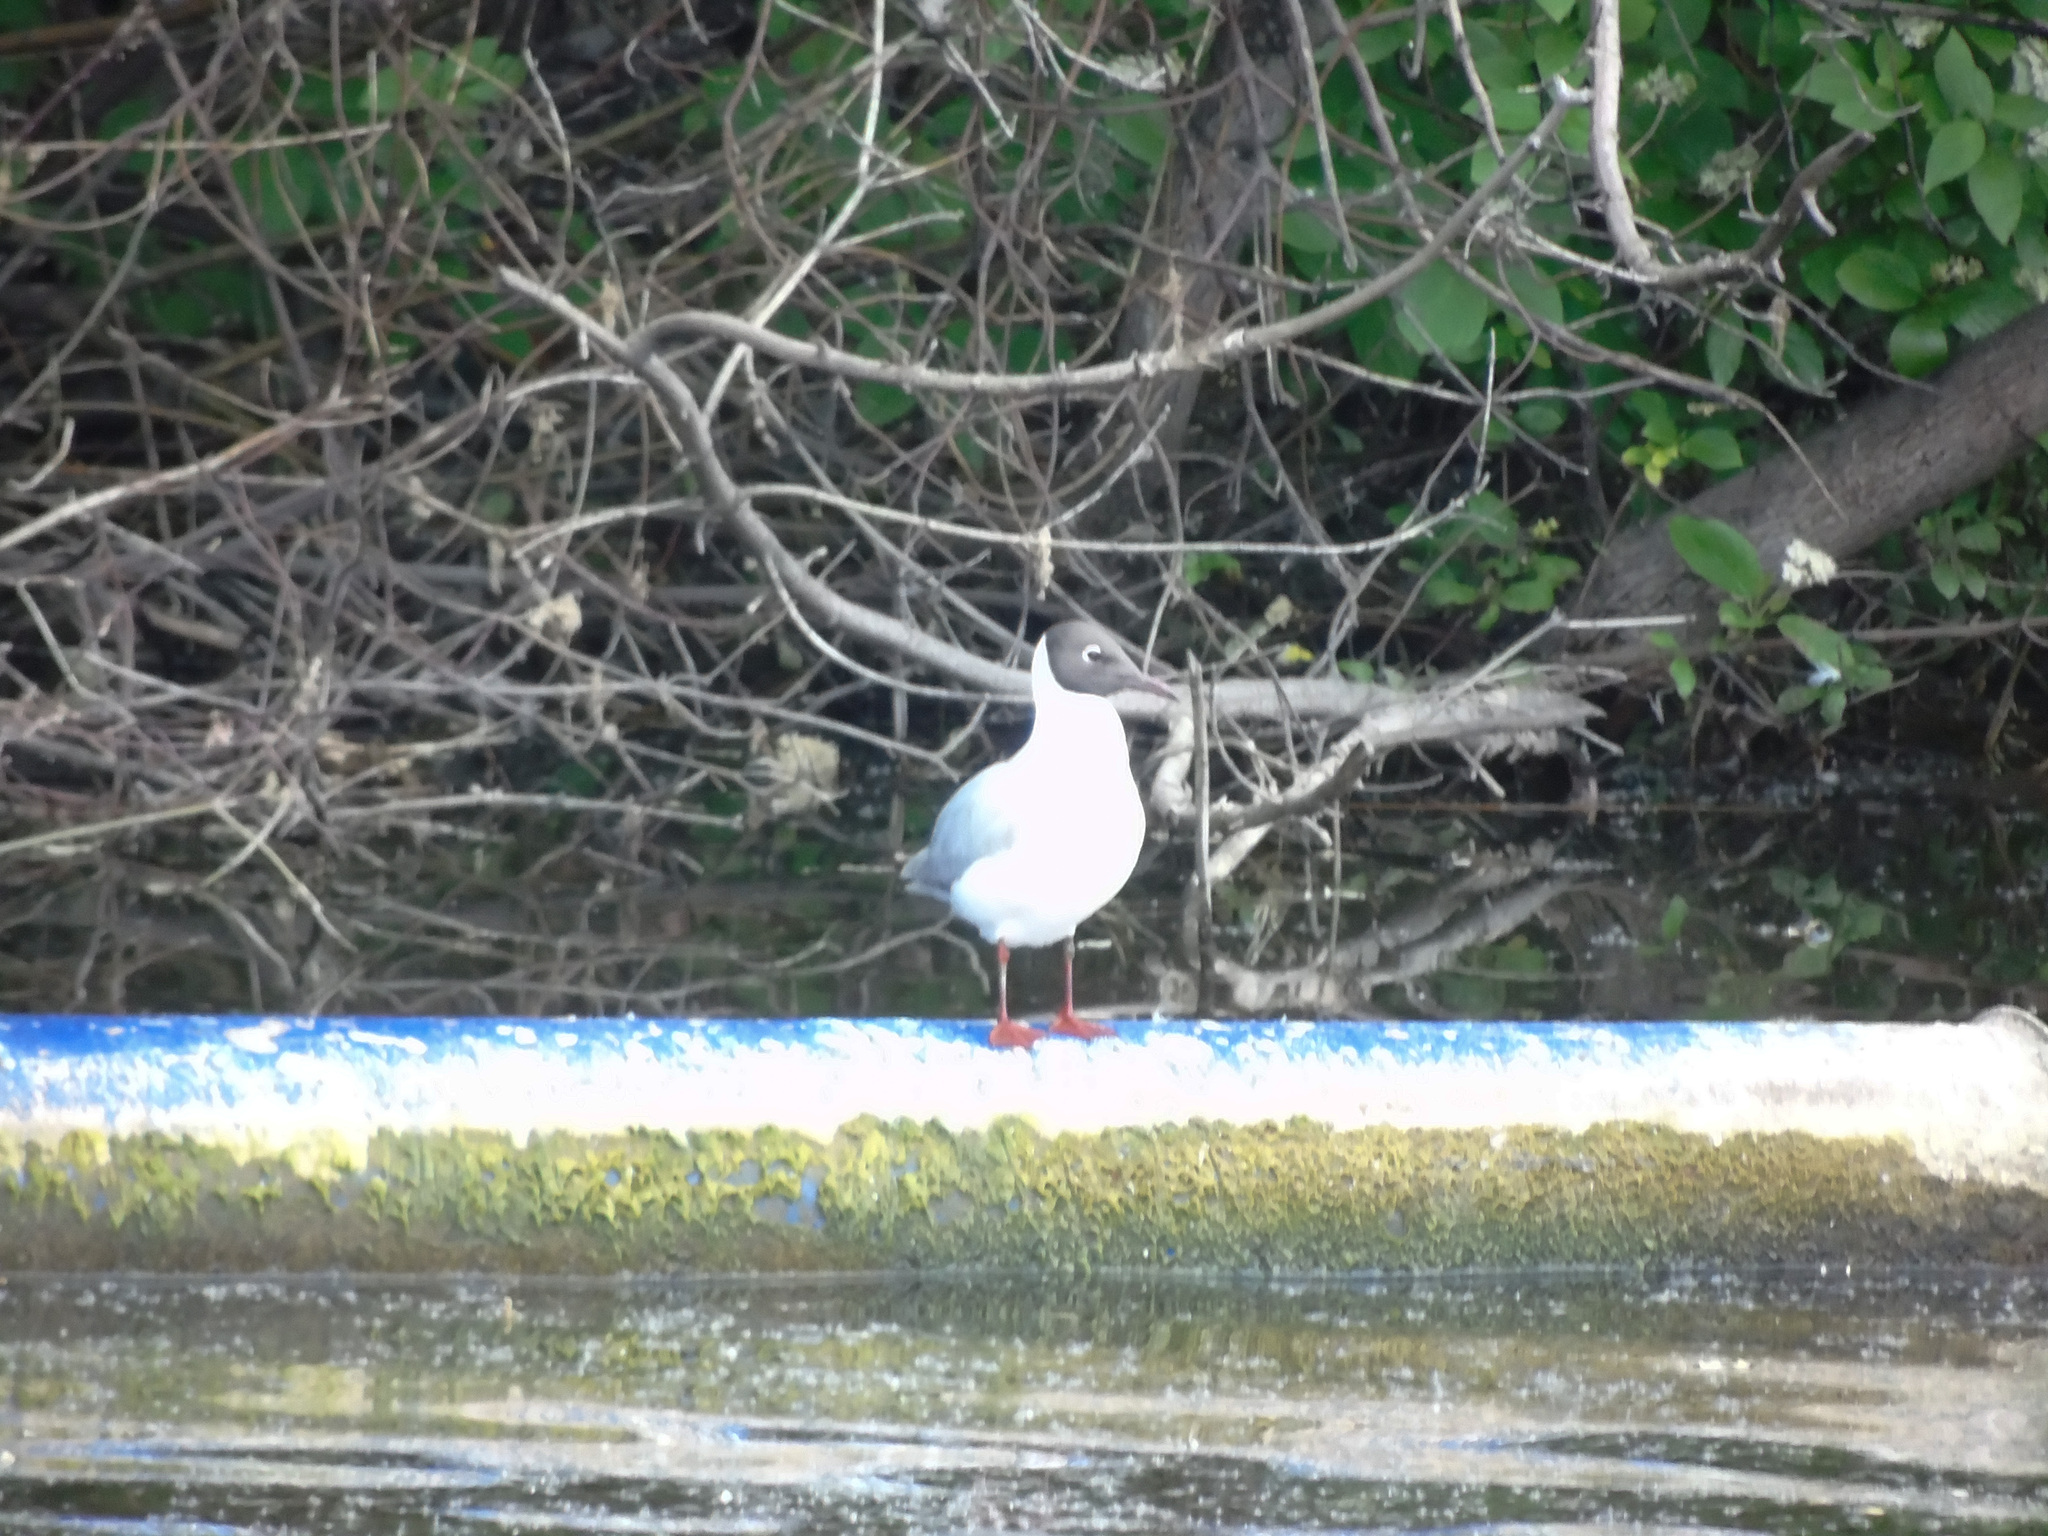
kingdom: Animalia
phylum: Chordata
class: Aves
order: Charadriiformes
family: Laridae
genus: Chroicocephalus
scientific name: Chroicocephalus ridibundus
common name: Black-headed gull
